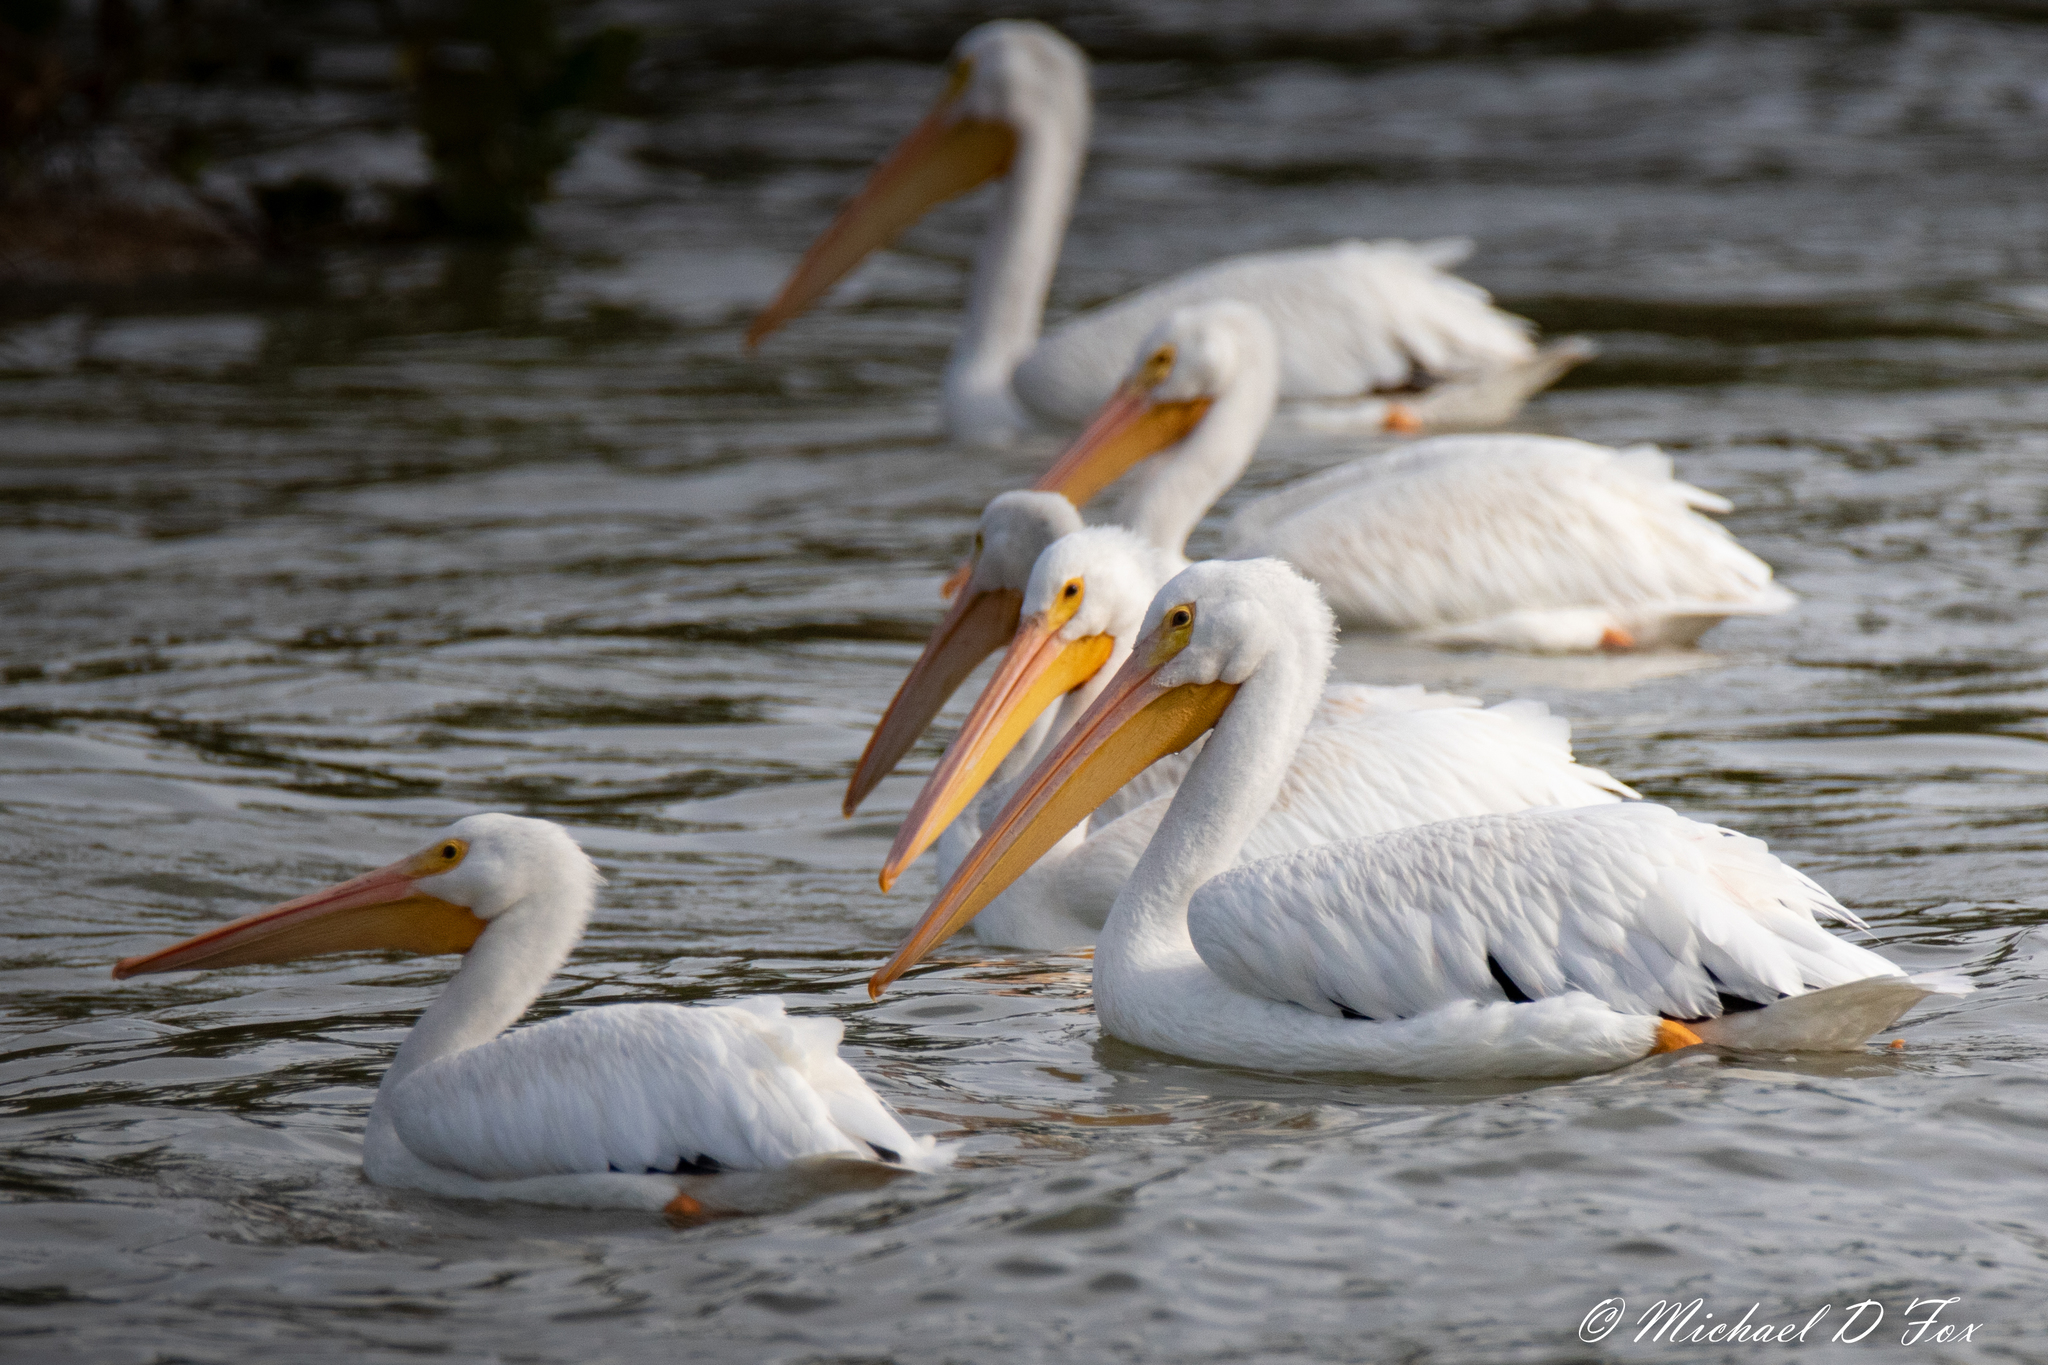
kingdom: Animalia
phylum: Chordata
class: Aves
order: Pelecaniformes
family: Pelecanidae
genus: Pelecanus
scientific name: Pelecanus erythrorhynchos
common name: American white pelican
